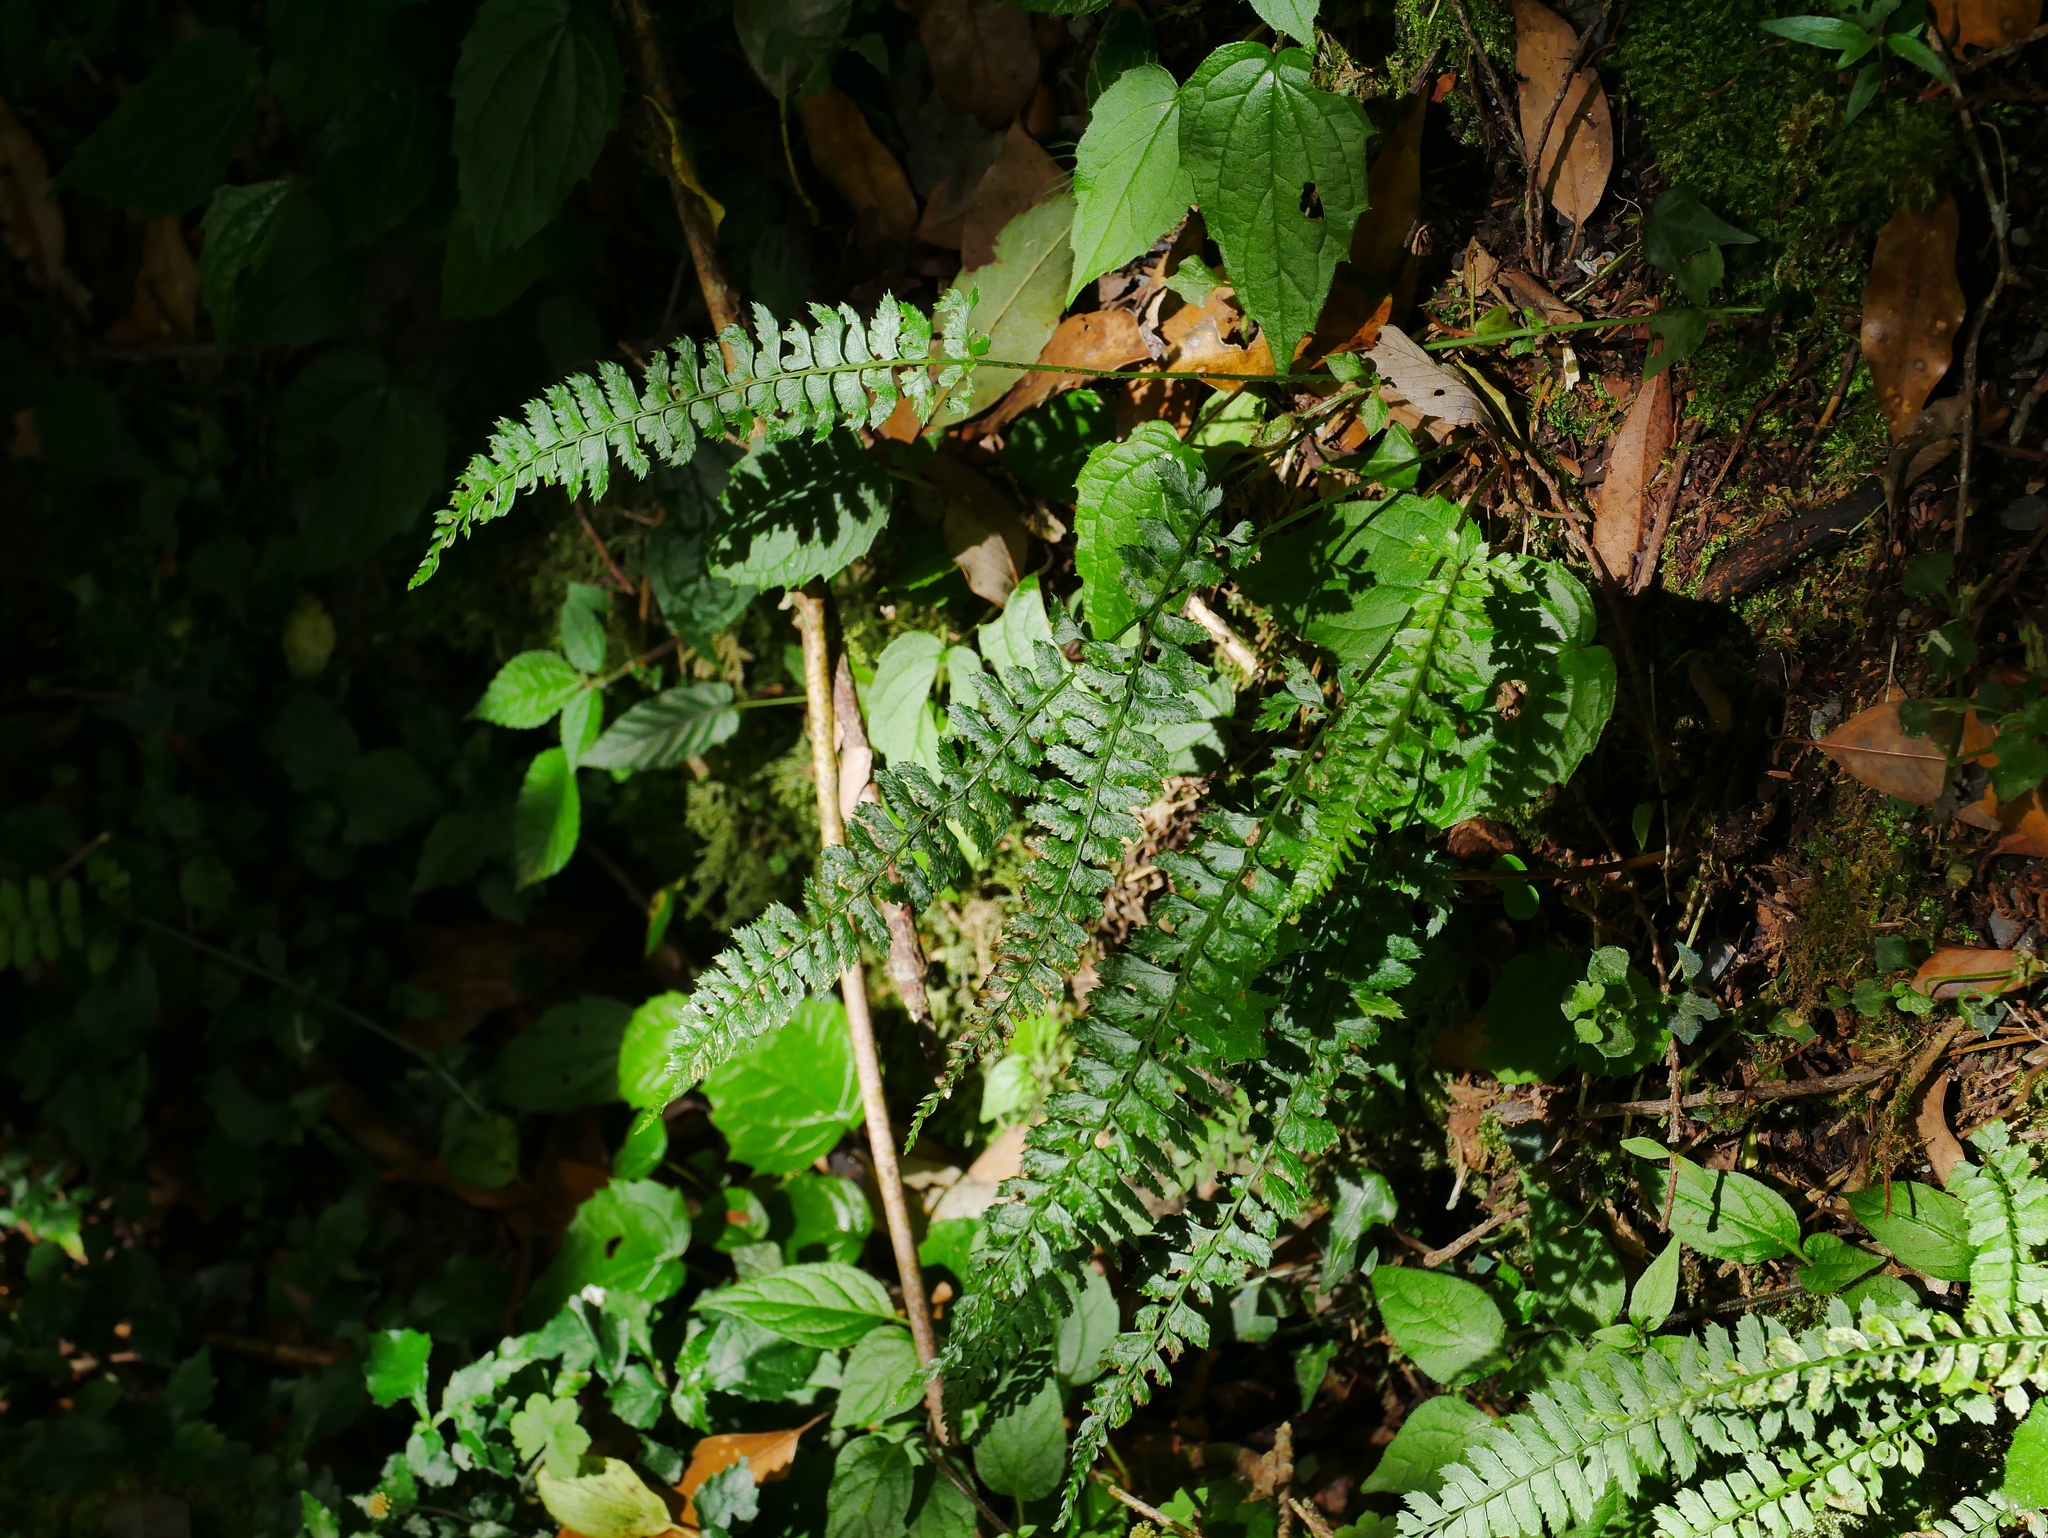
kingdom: Plantae
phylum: Tracheophyta
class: Polypodiopsida
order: Polypodiales
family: Dryopteridaceae
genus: Polystichum
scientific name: Polystichum hancockii
